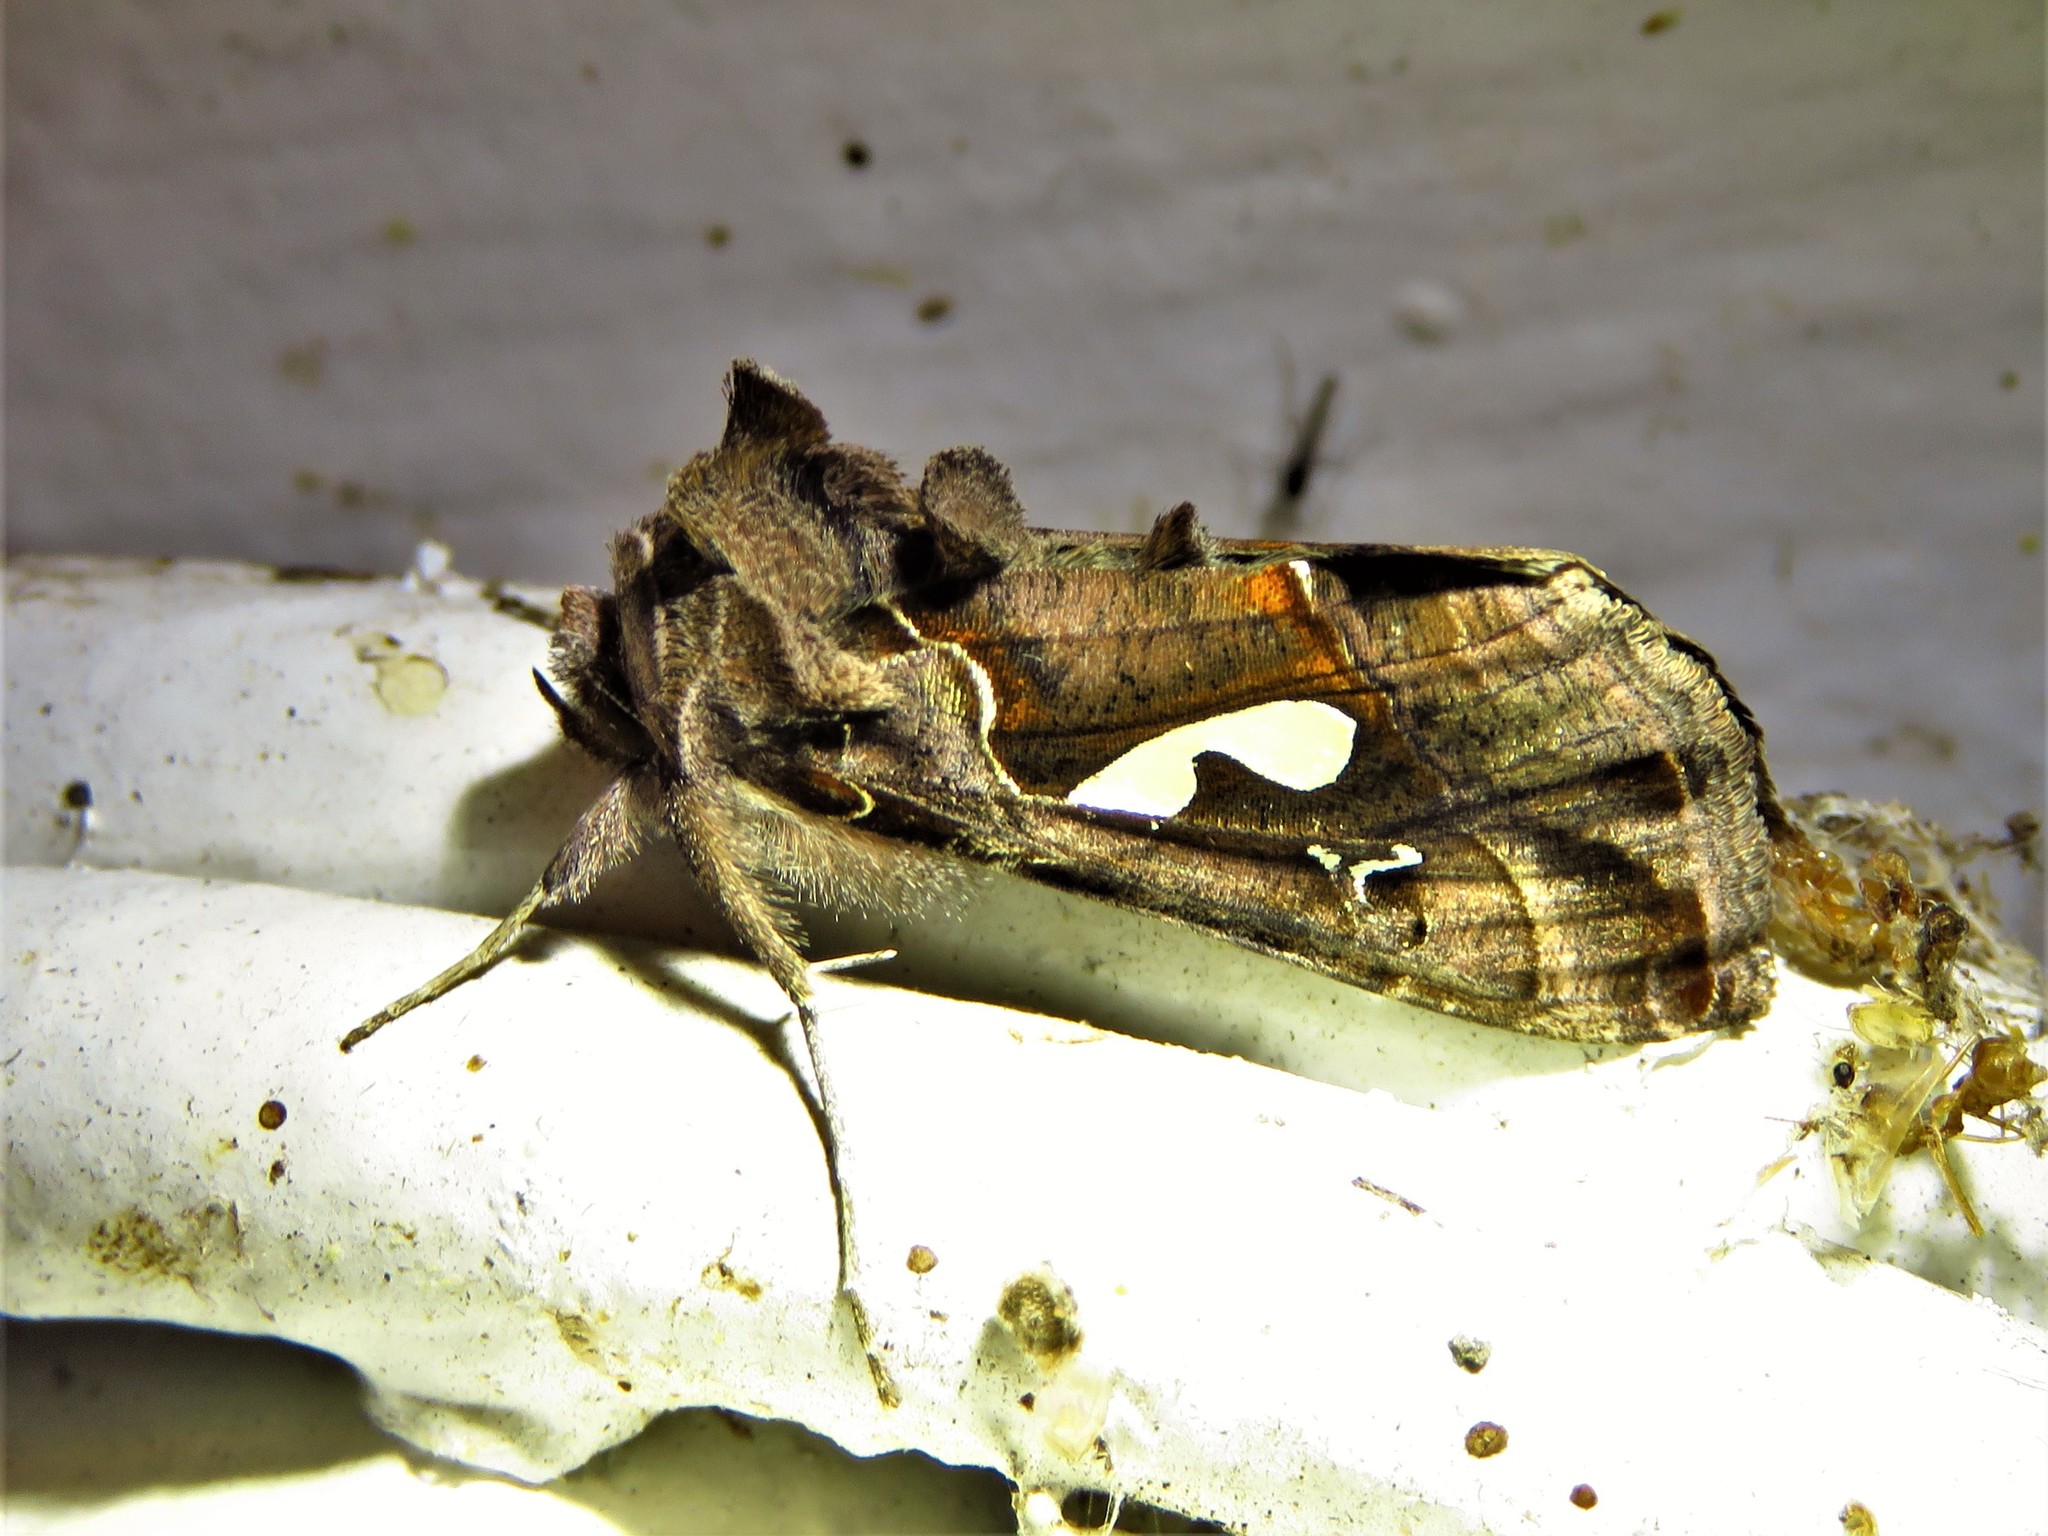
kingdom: Animalia
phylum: Arthropoda
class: Insecta
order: Lepidoptera
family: Noctuidae
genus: Megalographa
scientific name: Megalographa biloba
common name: Cutworm
